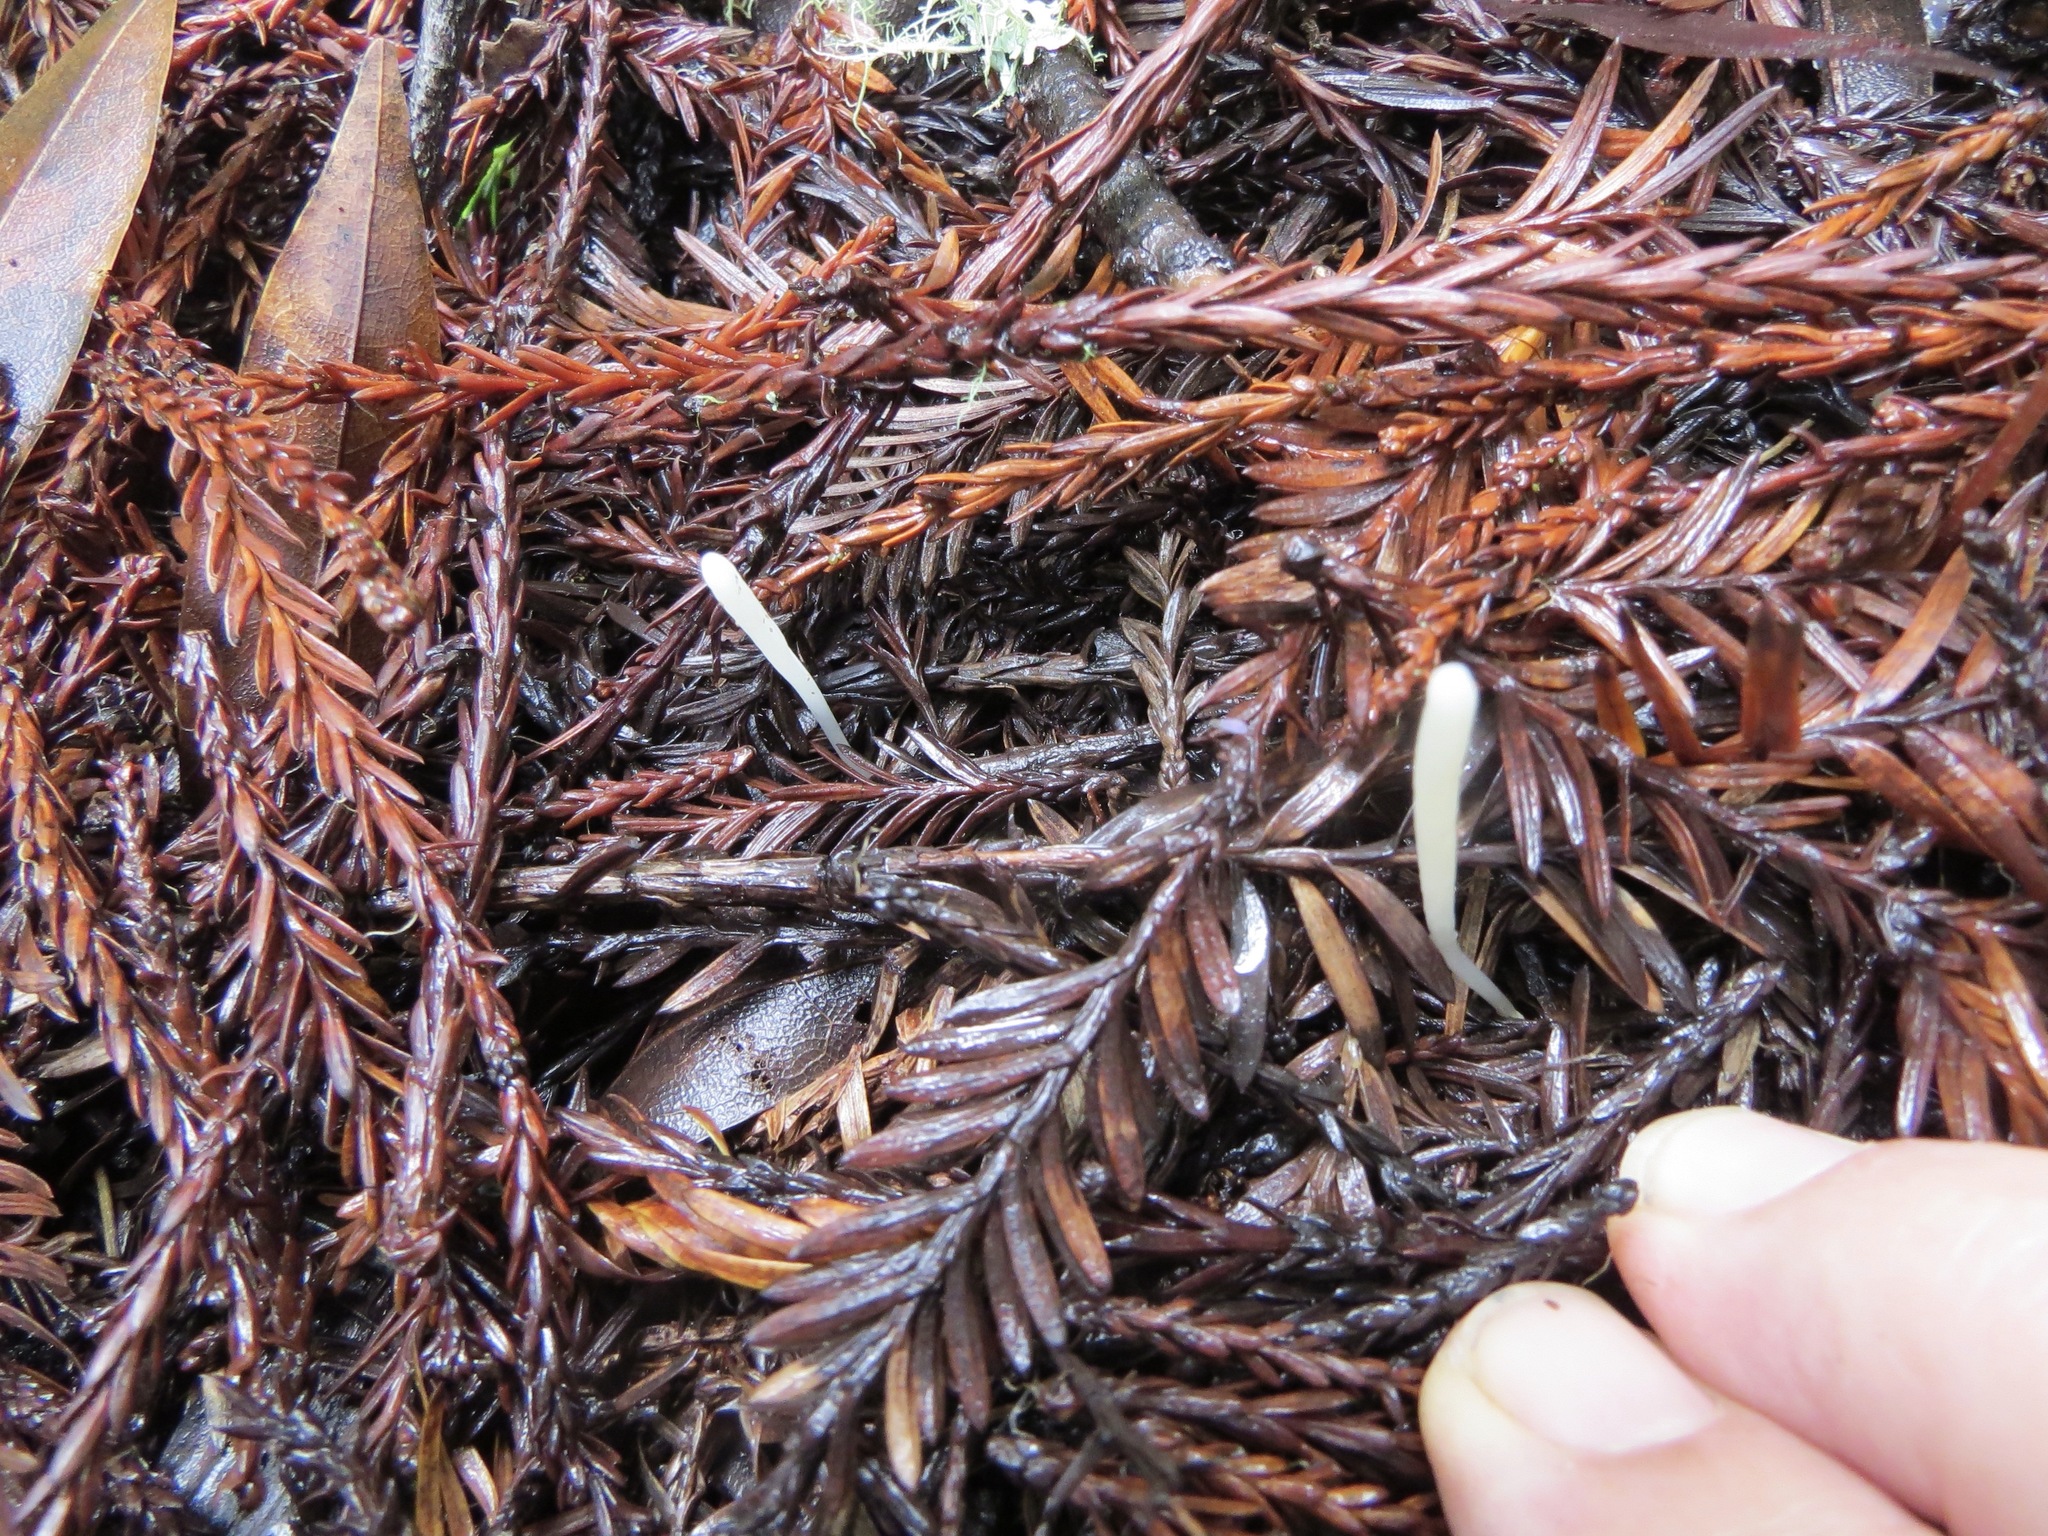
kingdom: Fungi
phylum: Basidiomycota
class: Agaricomycetes
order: Agaricales
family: Clavariaceae
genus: Clavaria
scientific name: Clavaria falcata
